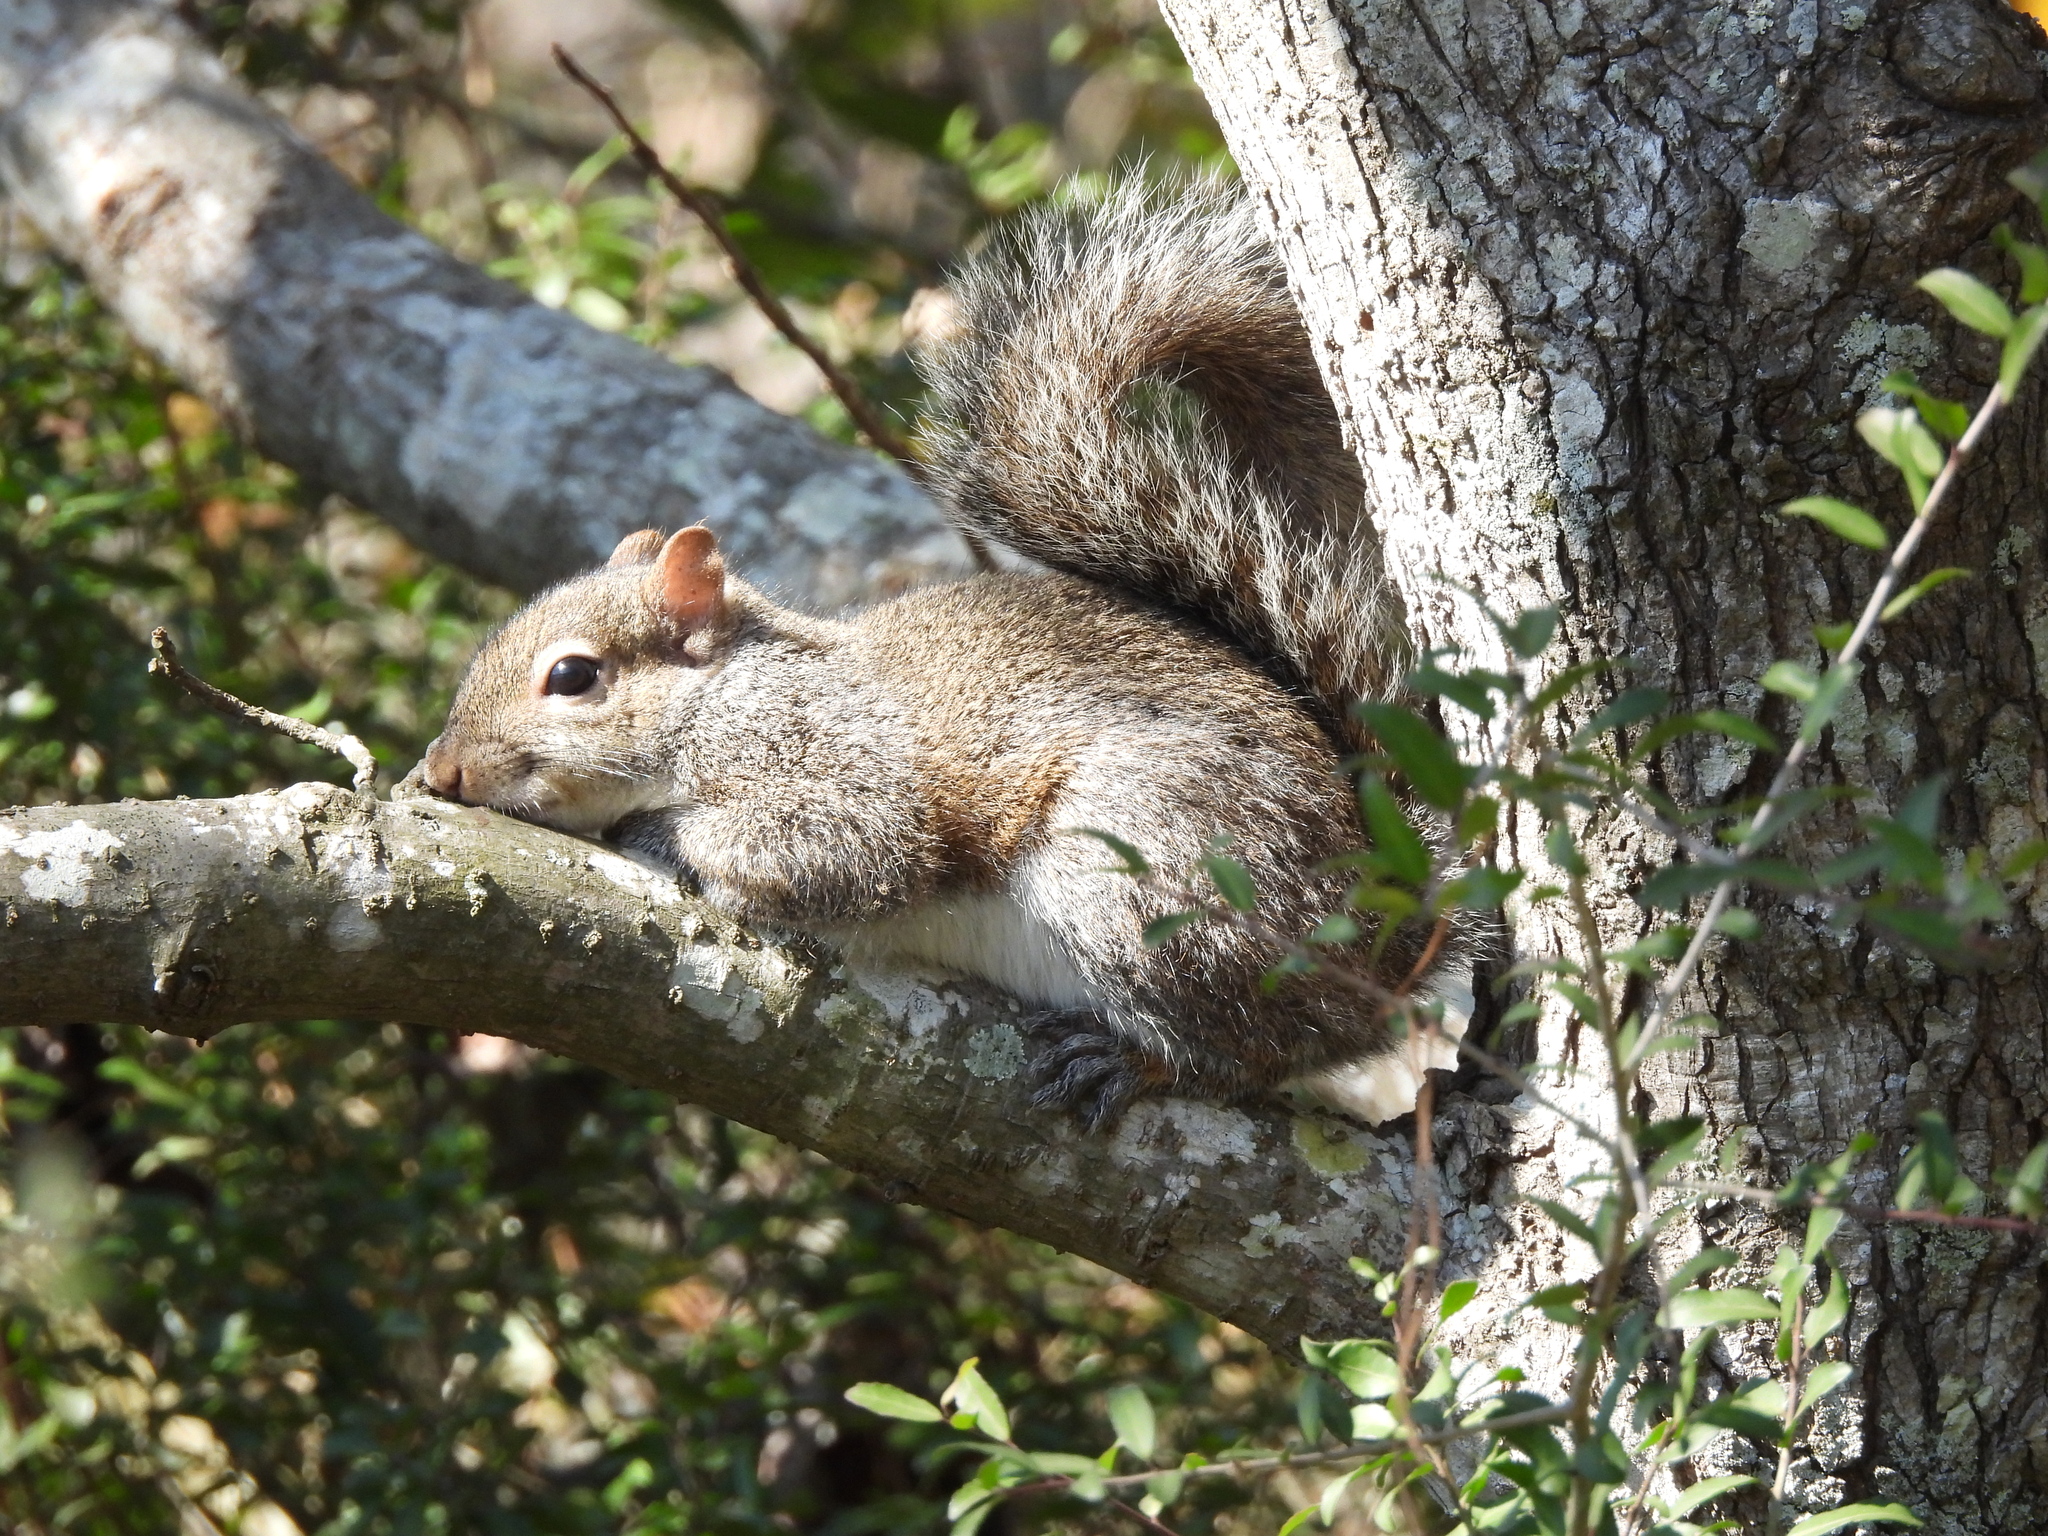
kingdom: Animalia
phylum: Chordata
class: Mammalia
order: Rodentia
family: Sciuridae
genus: Sciurus
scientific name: Sciurus carolinensis
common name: Eastern gray squirrel
